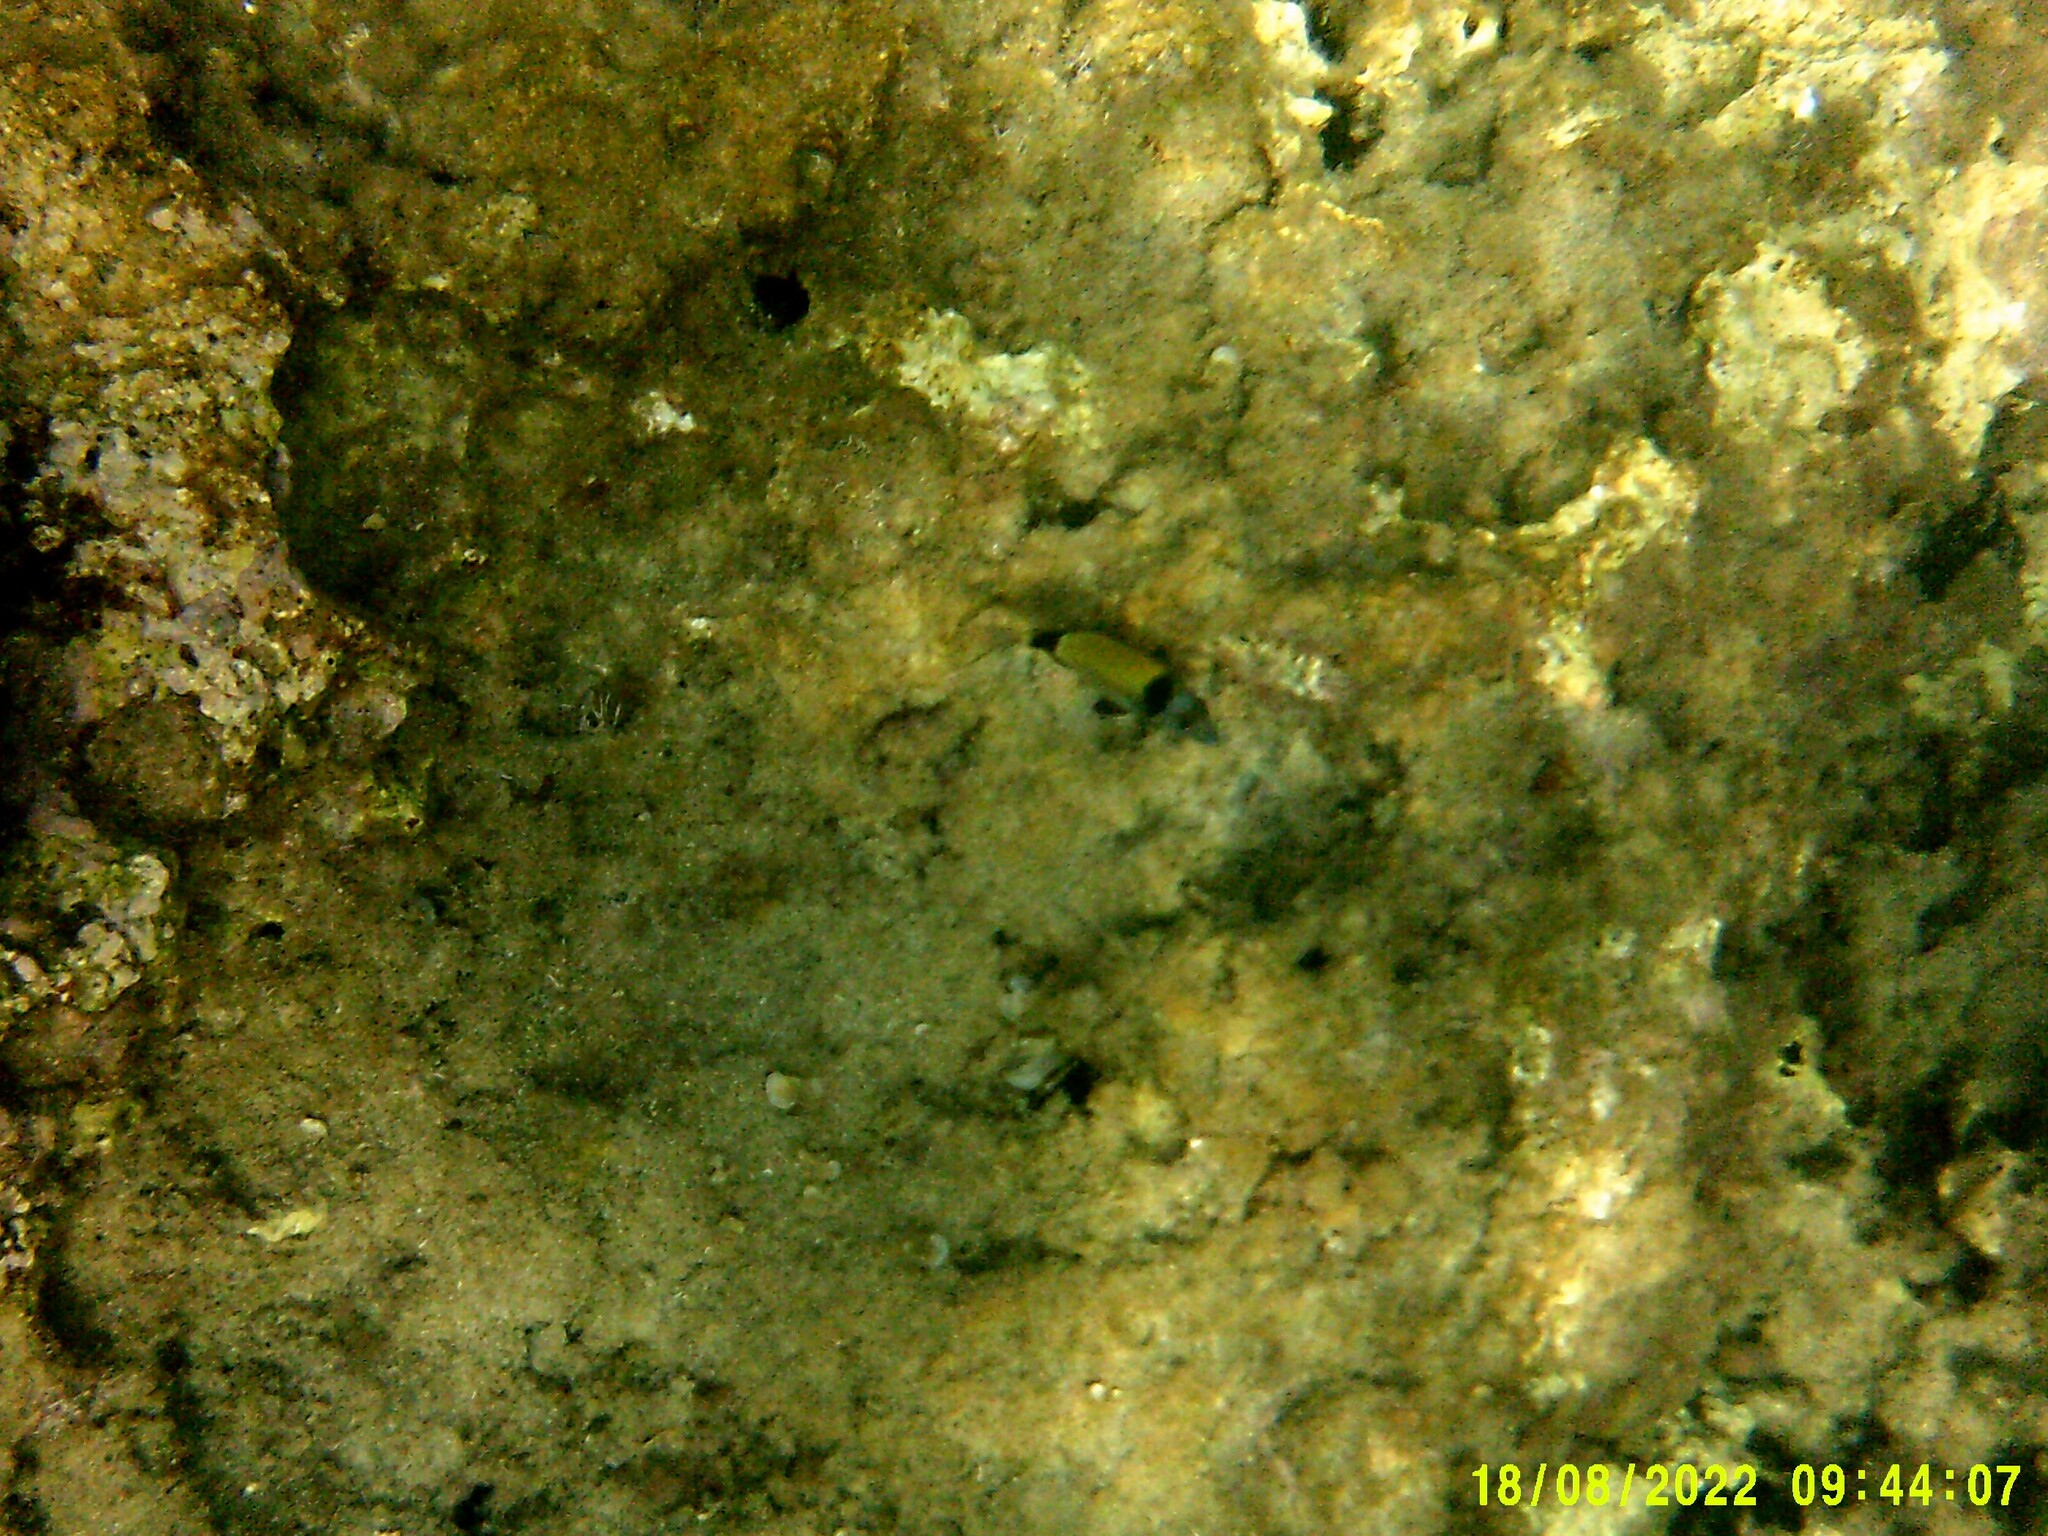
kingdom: Animalia
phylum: Chordata
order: Perciformes
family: Sparidae
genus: Diplodus
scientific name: Diplodus vulgaris
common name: Common two-banded seabream
